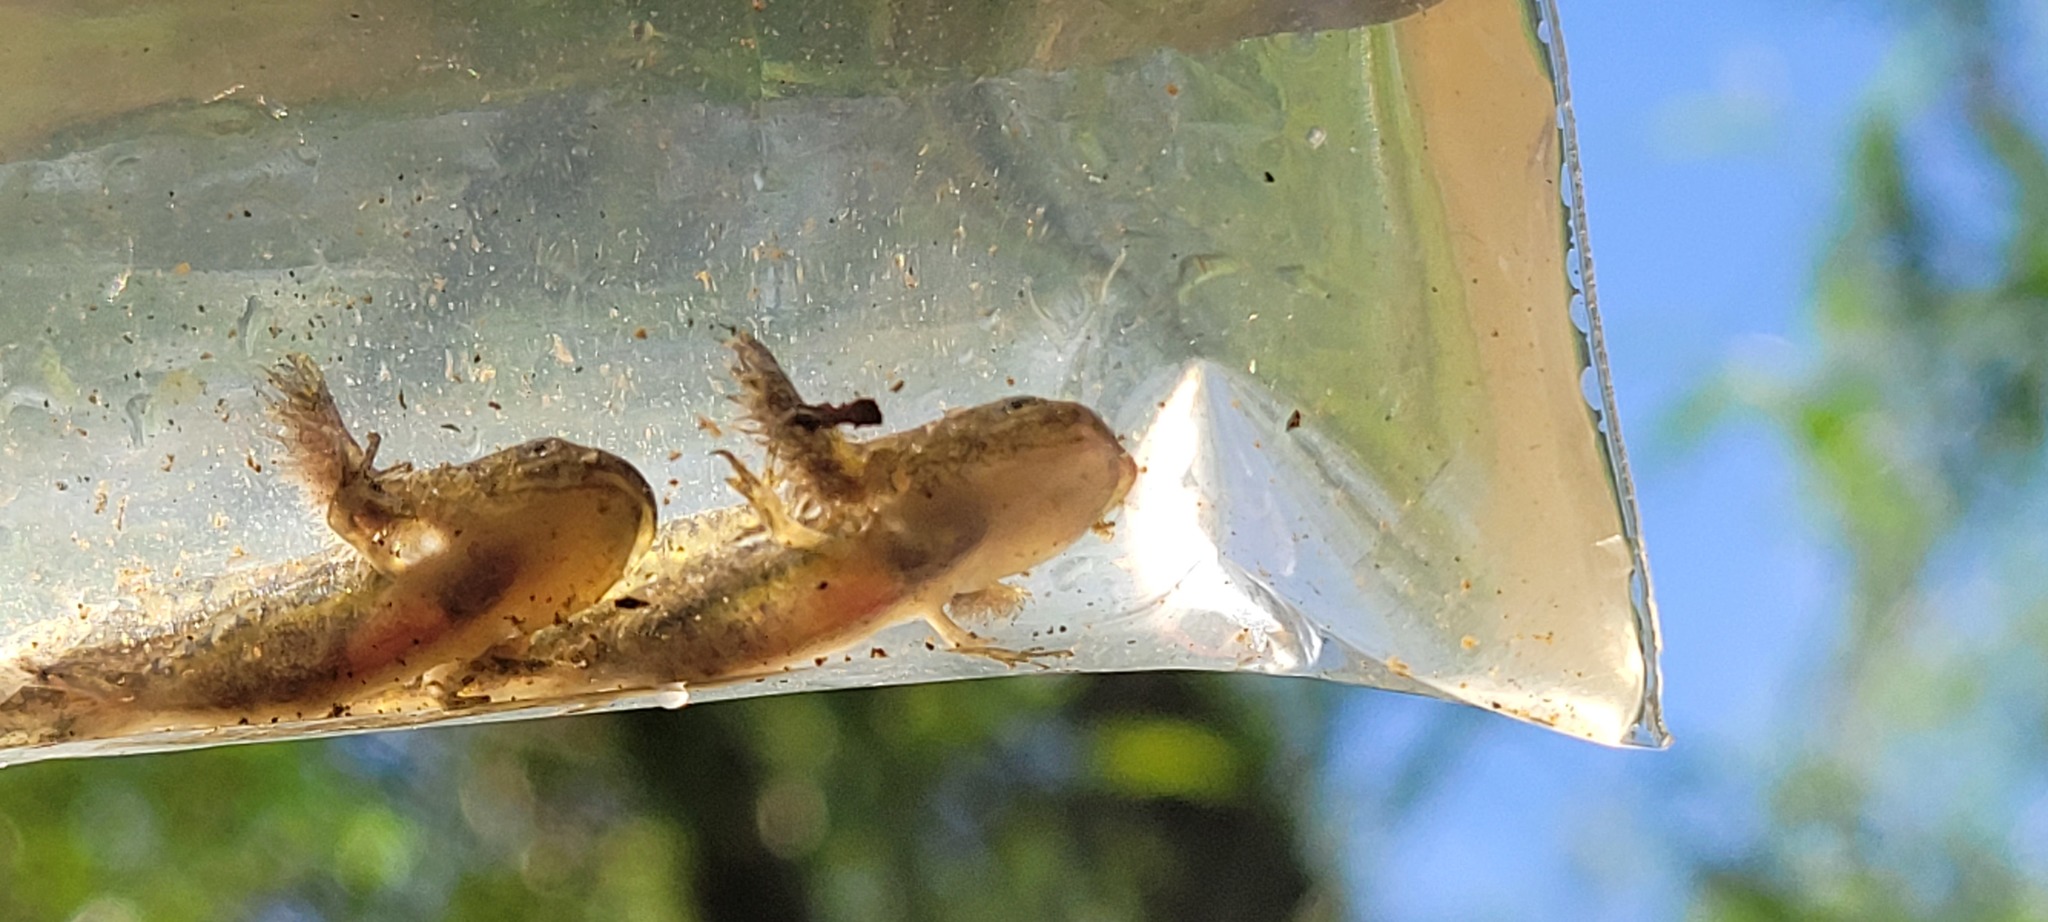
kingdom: Animalia
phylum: Chordata
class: Amphibia
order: Caudata
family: Ambystomatidae
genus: Ambystoma
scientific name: Ambystoma gracile
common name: Northwestern salamander
